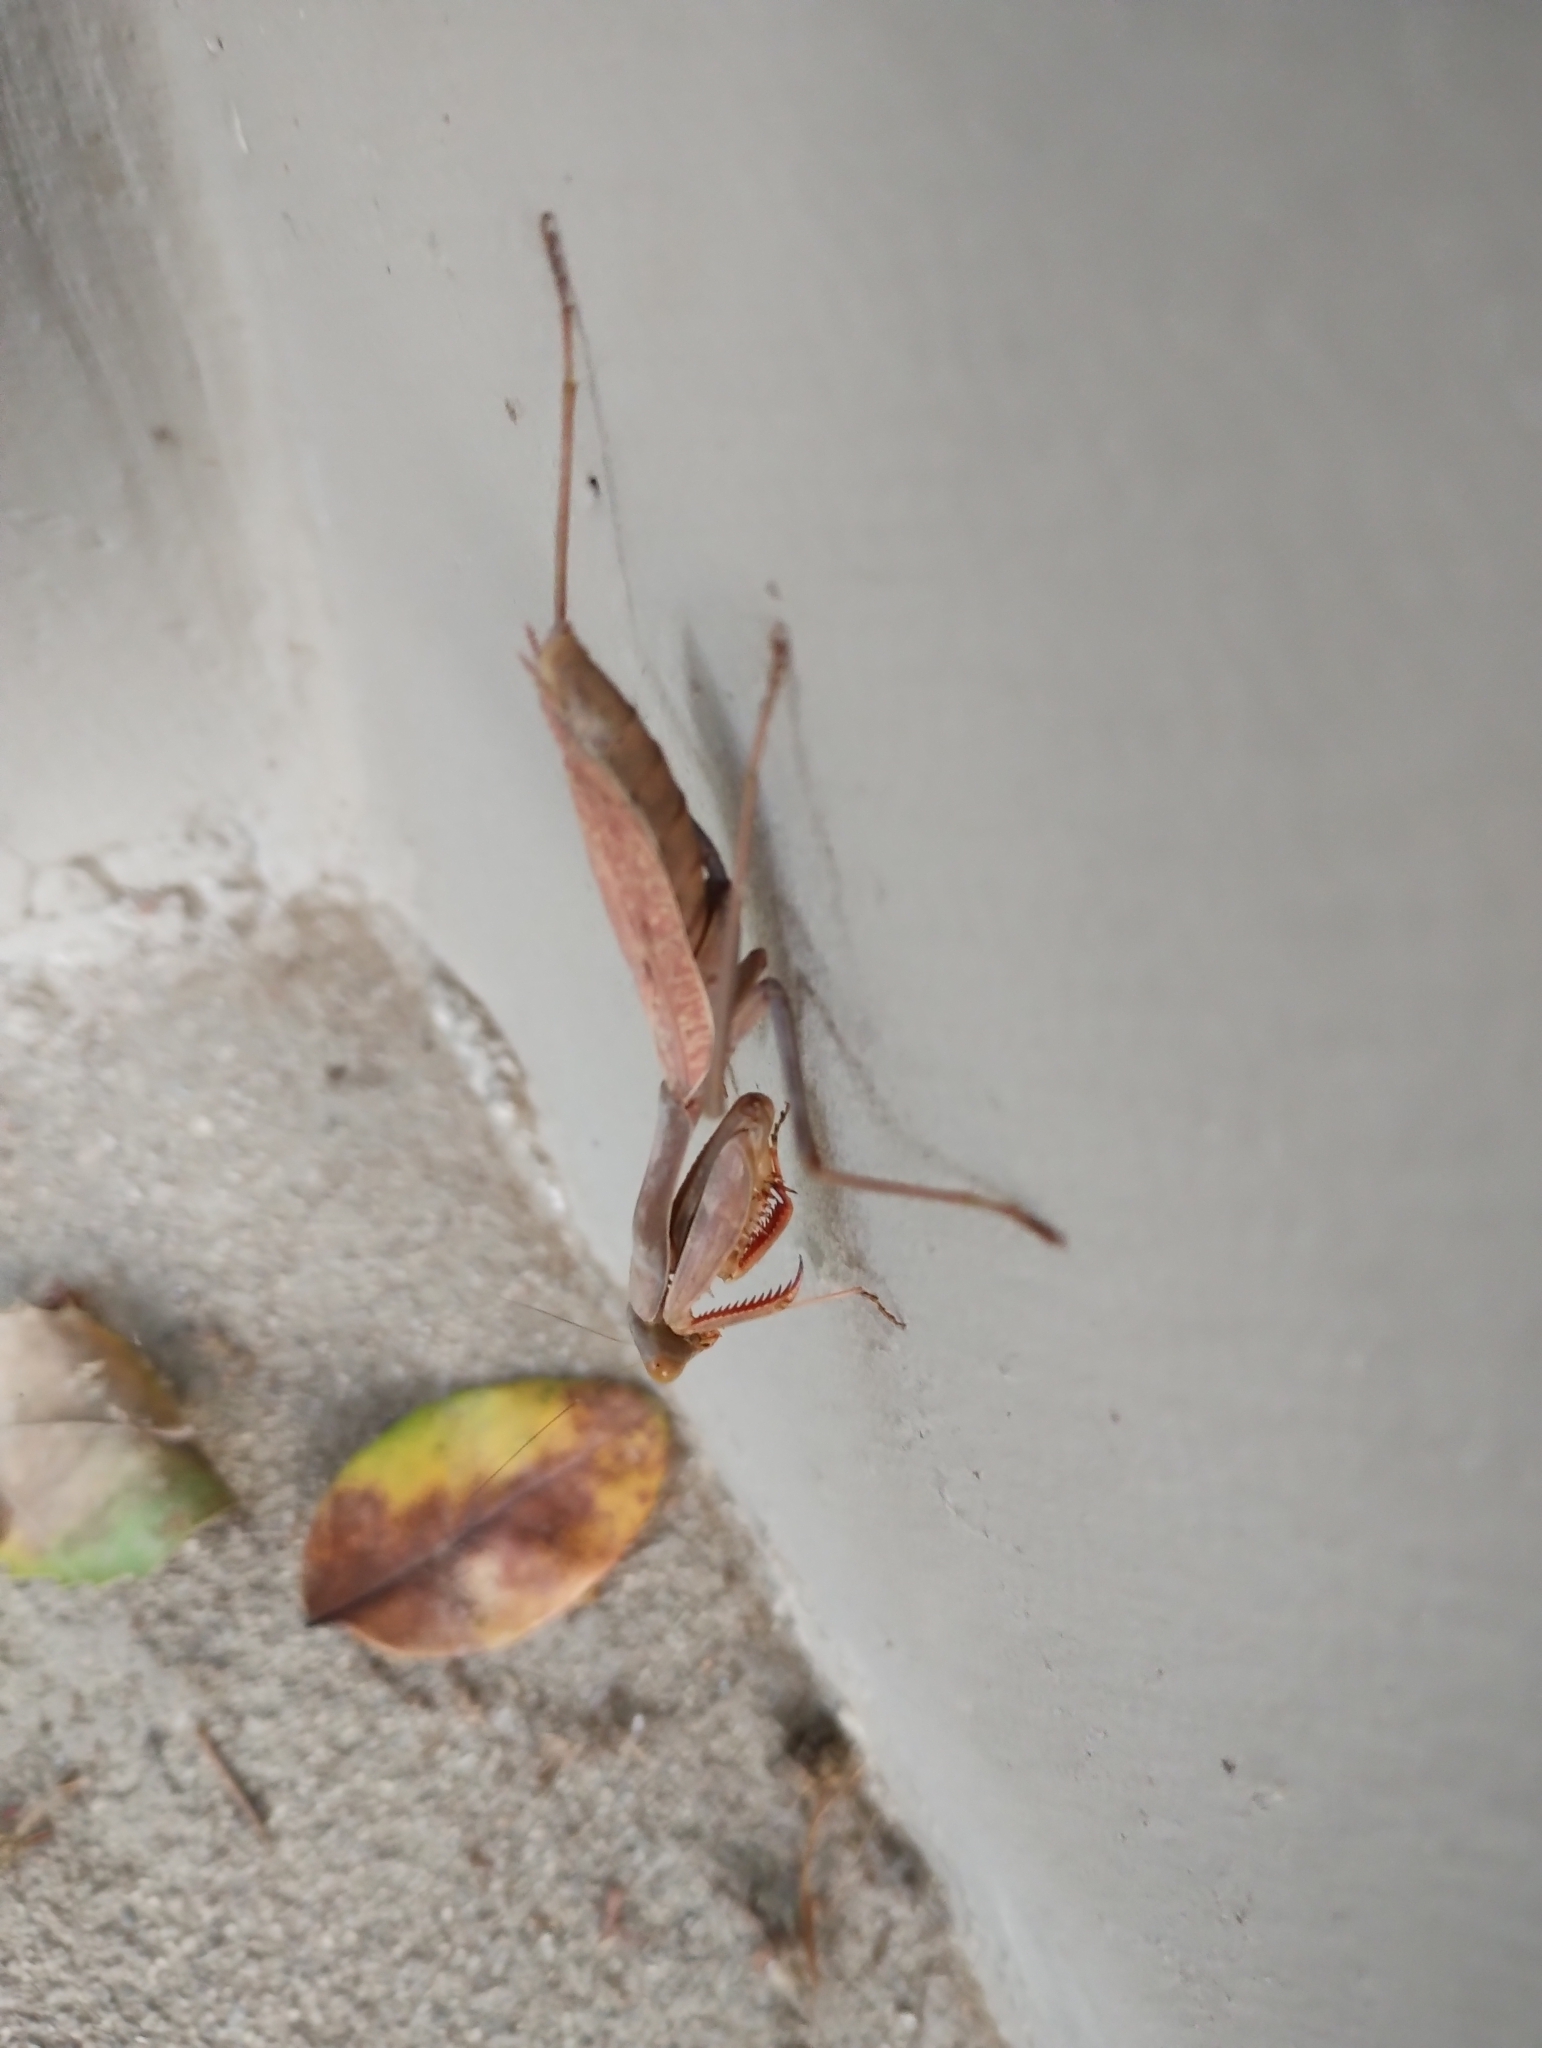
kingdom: Animalia
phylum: Arthropoda
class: Insecta
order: Mantodea
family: Mantidae
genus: Stagmomantis
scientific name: Stagmomantis limbata
